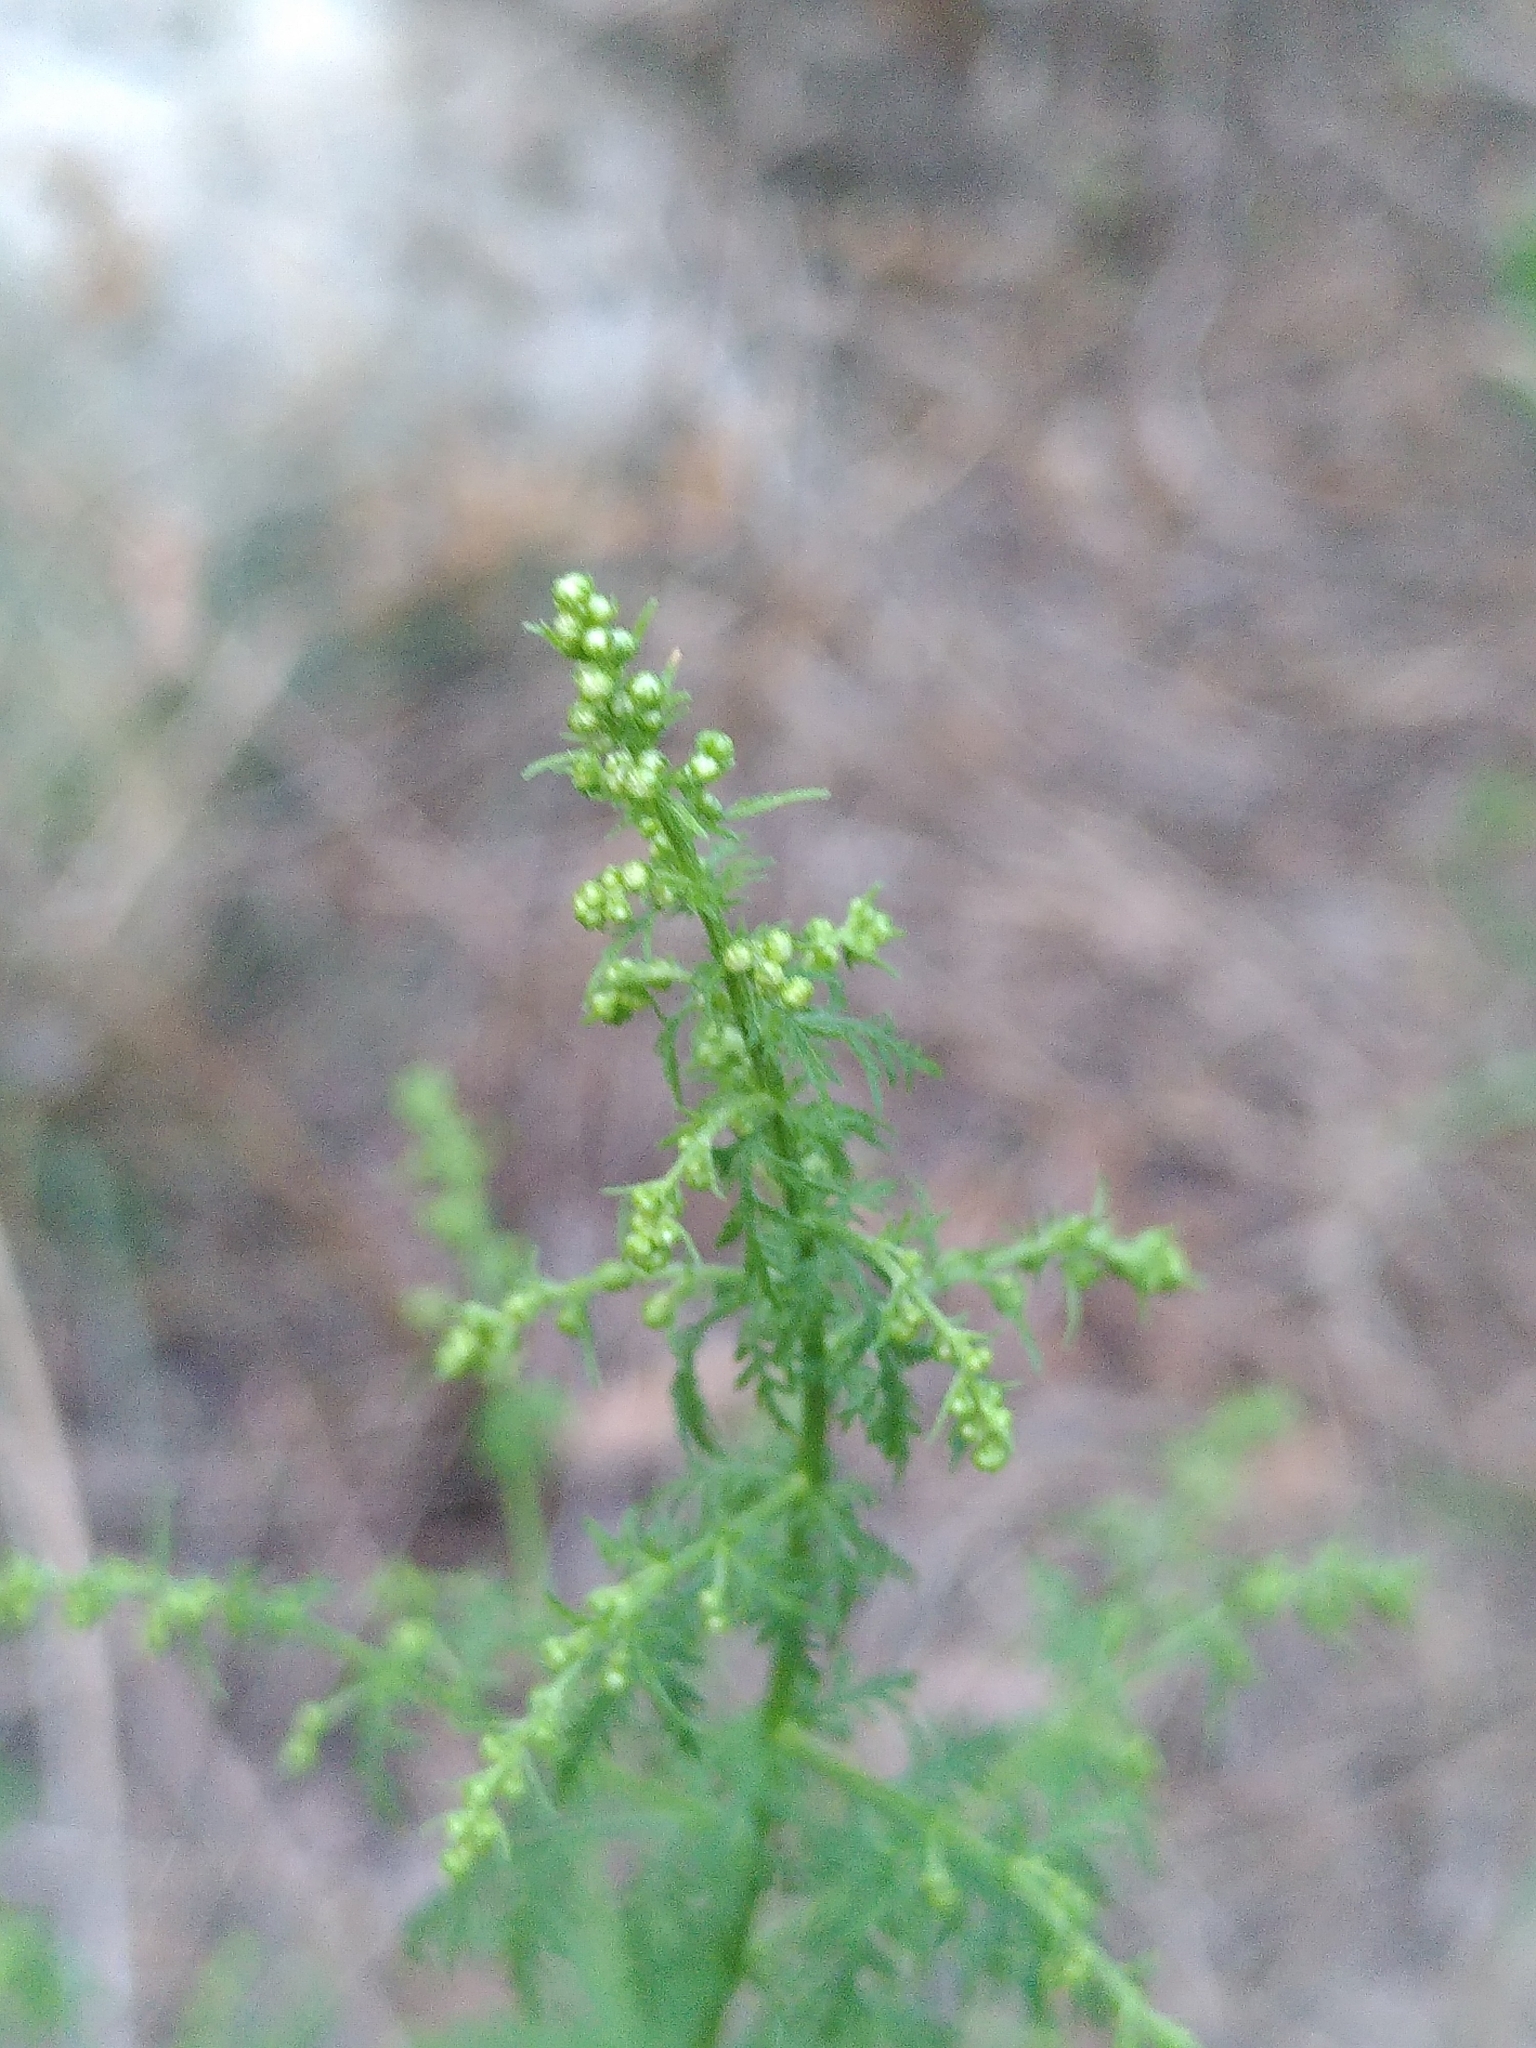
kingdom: Plantae
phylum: Tracheophyta
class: Magnoliopsida
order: Asterales
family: Asteraceae
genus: Artemisia
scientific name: Artemisia annua
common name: Sweet sagewort
